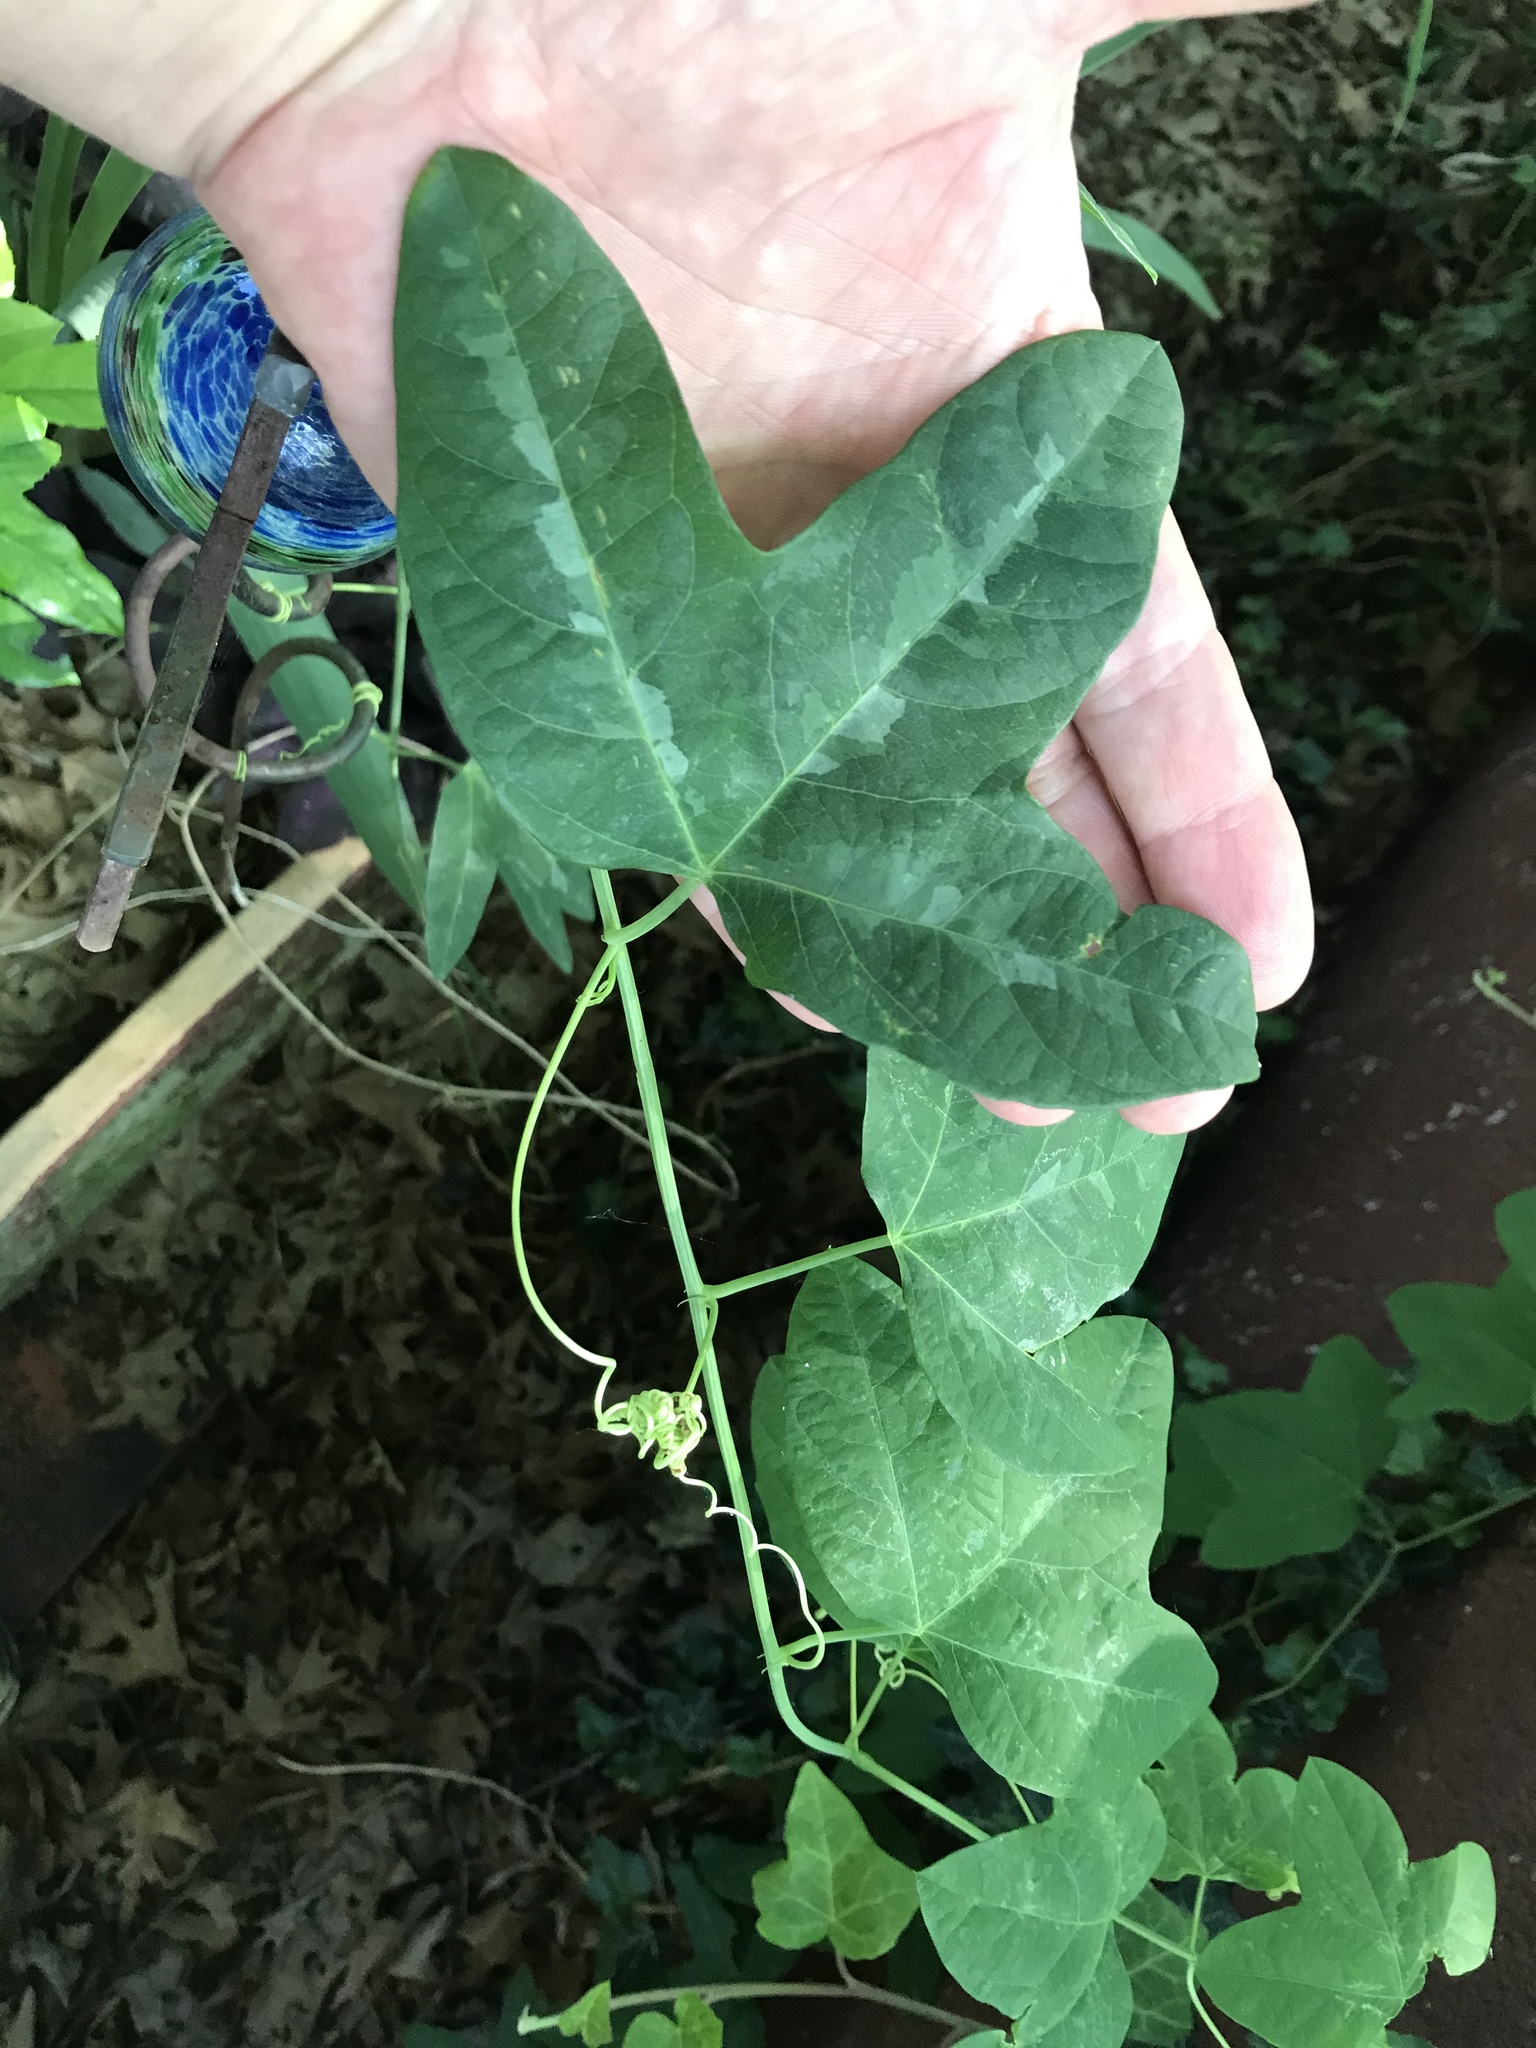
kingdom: Plantae
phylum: Tracheophyta
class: Magnoliopsida
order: Malpighiales
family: Passifloraceae
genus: Passiflora
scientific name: Passiflora lutea
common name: Yellow passionflower
